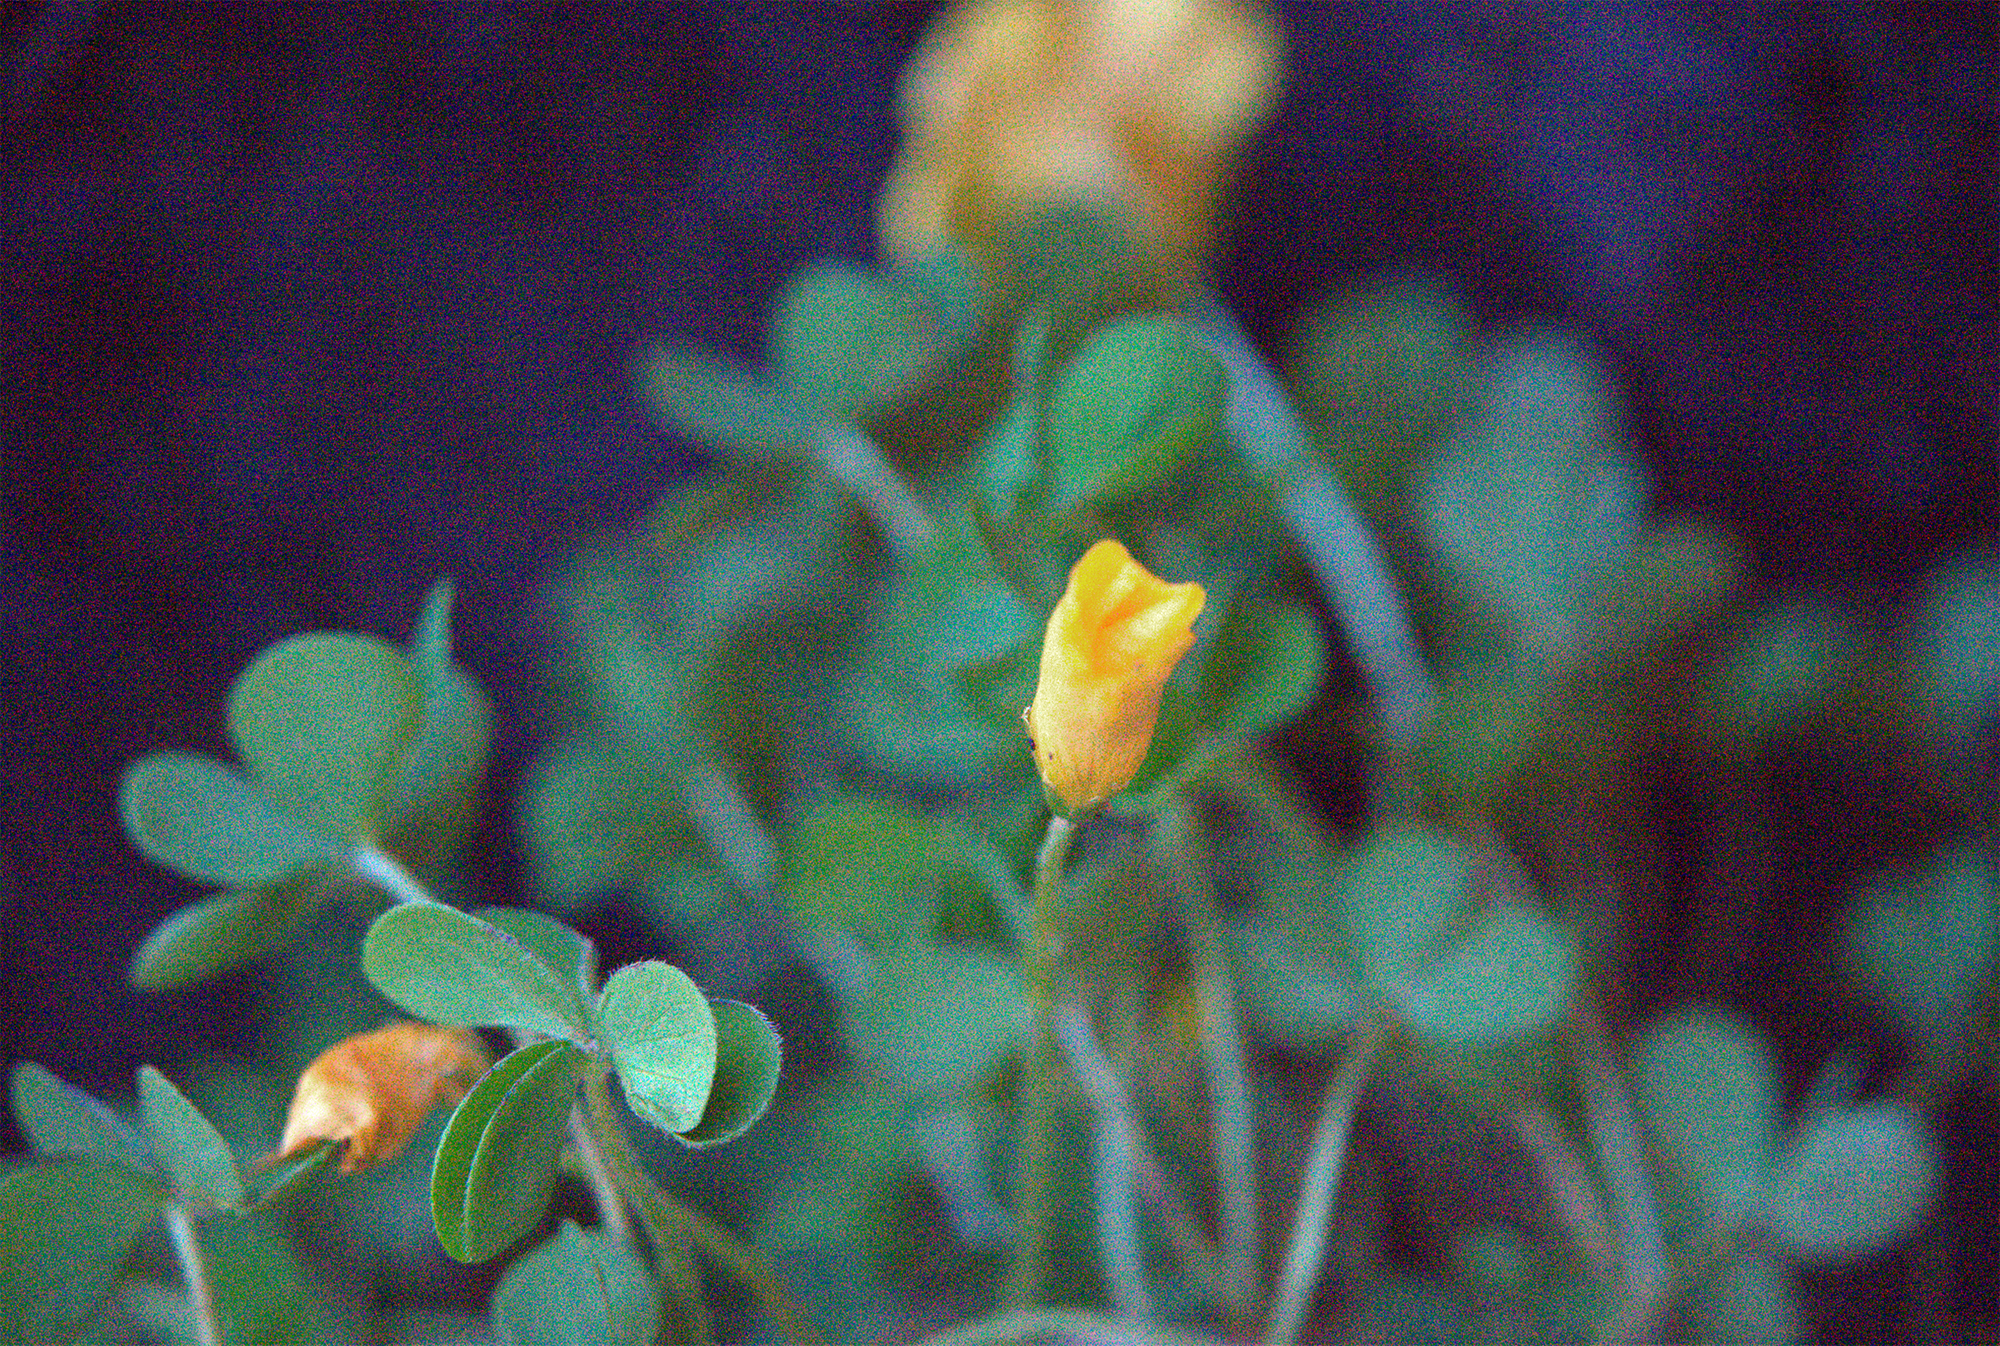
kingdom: Plantae
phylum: Tracheophyta
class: Magnoliopsida
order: Oxalidales
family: Oxalidaceae
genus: Oxalis
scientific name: Oxalis perdicaria
